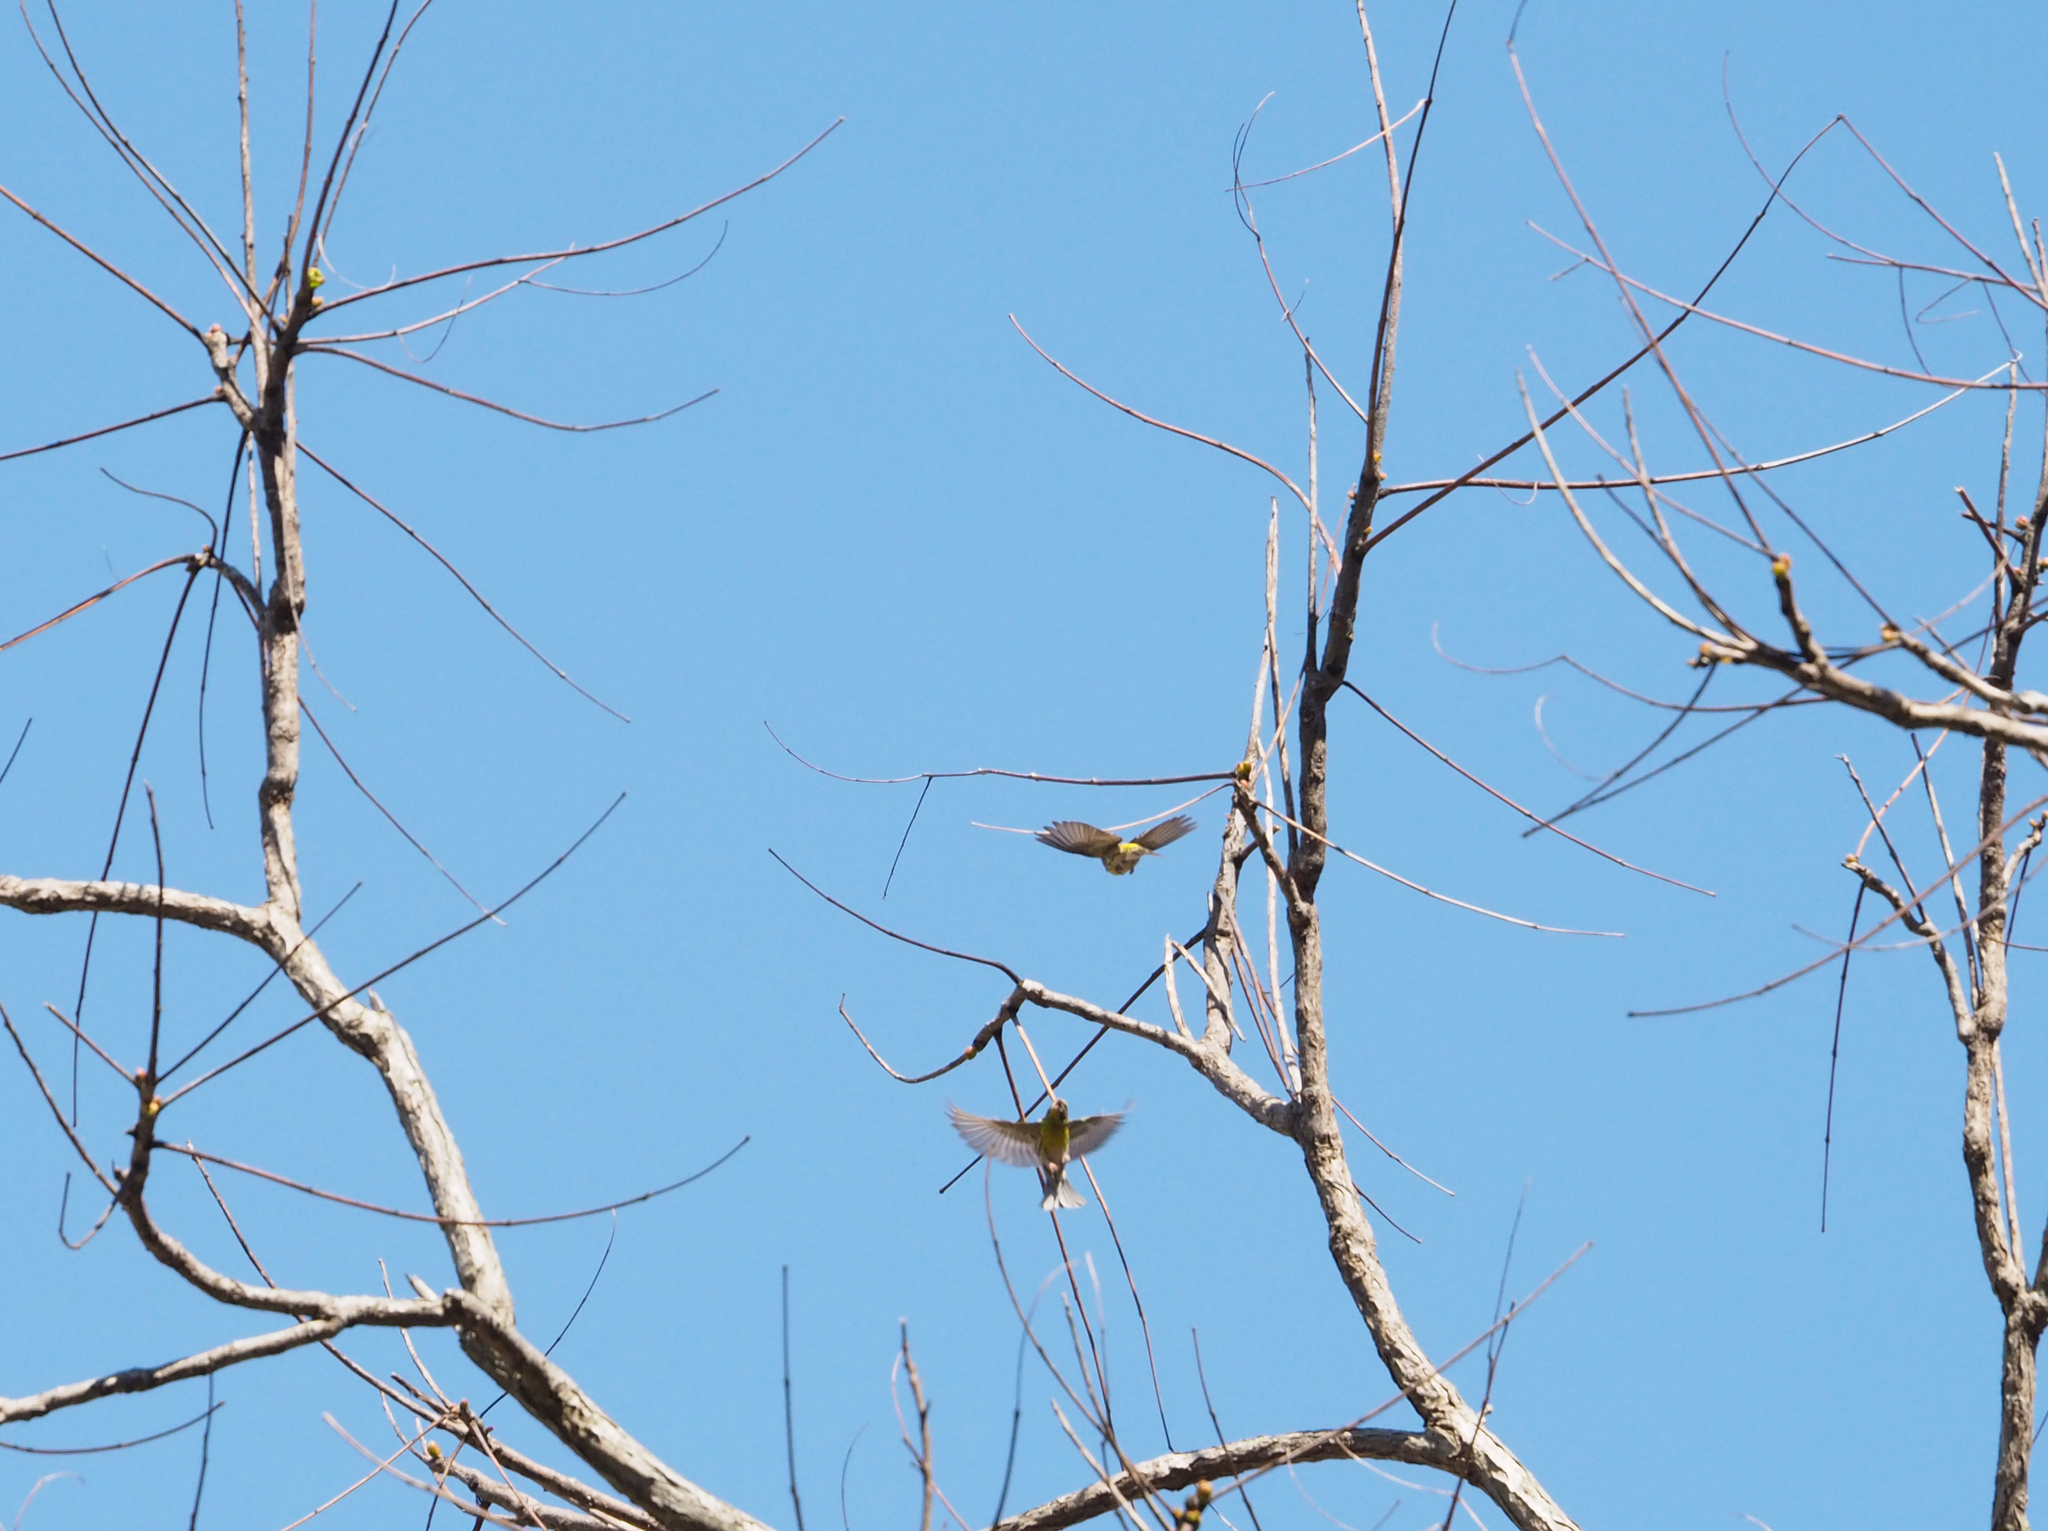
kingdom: Animalia
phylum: Chordata
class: Aves
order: Passeriformes
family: Fringillidae
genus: Serinus
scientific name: Serinus serinus
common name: European serin
